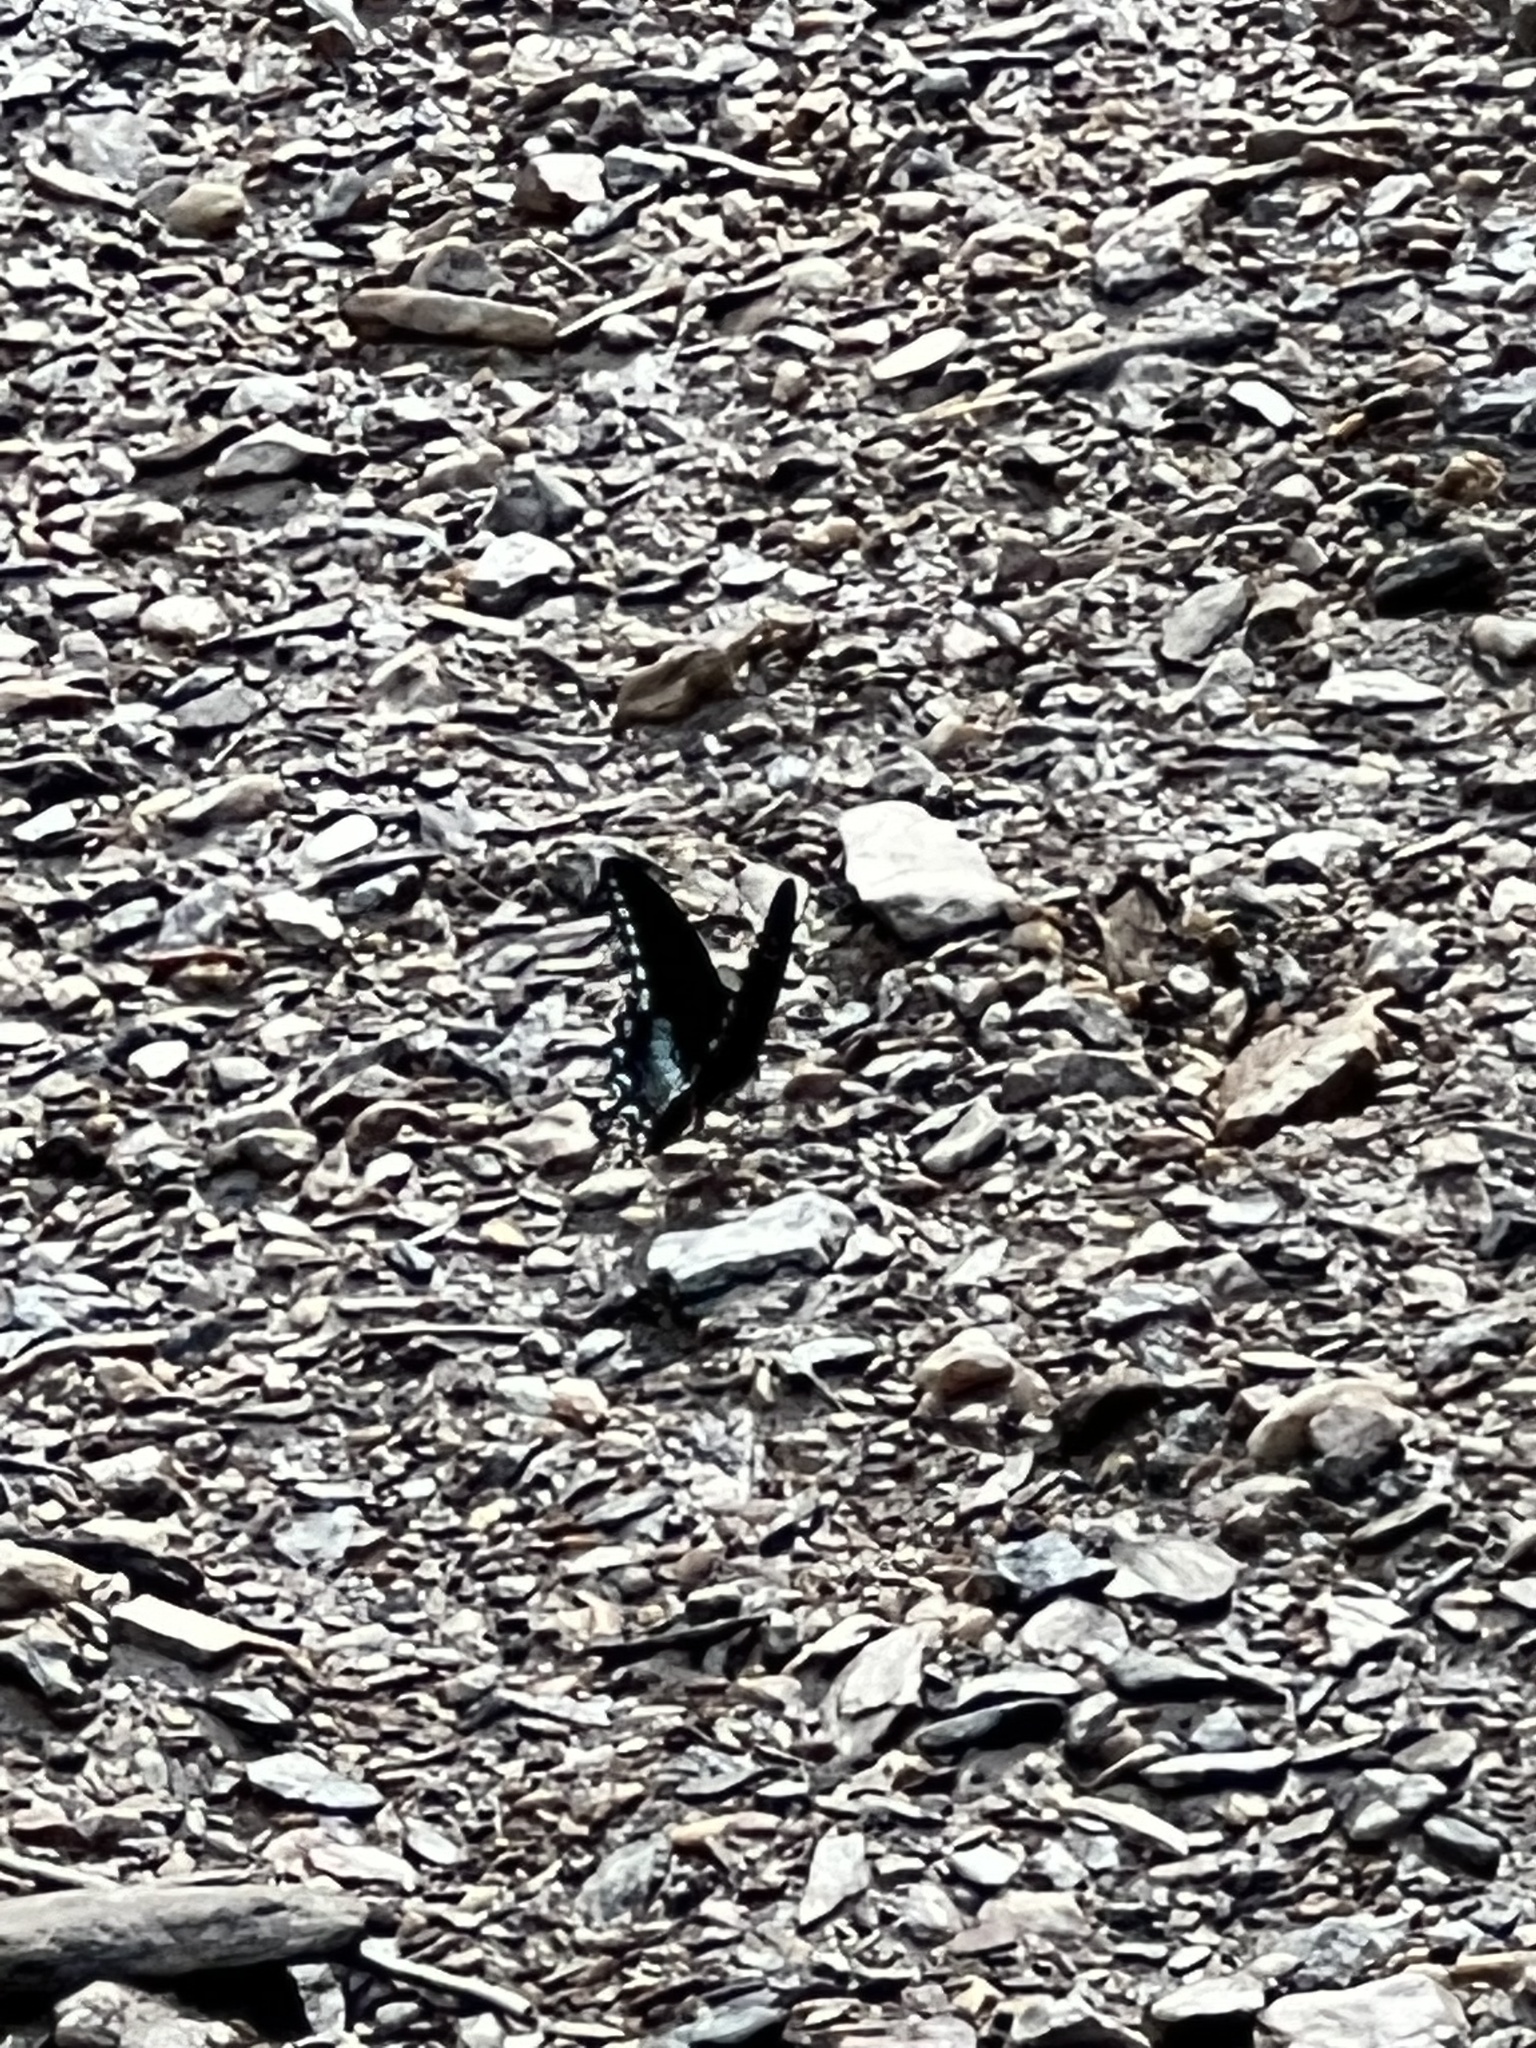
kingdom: Animalia
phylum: Arthropoda
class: Insecta
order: Lepidoptera
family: Papilionidae
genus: Papilio
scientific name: Papilio troilus
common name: Spicebush swallowtail
